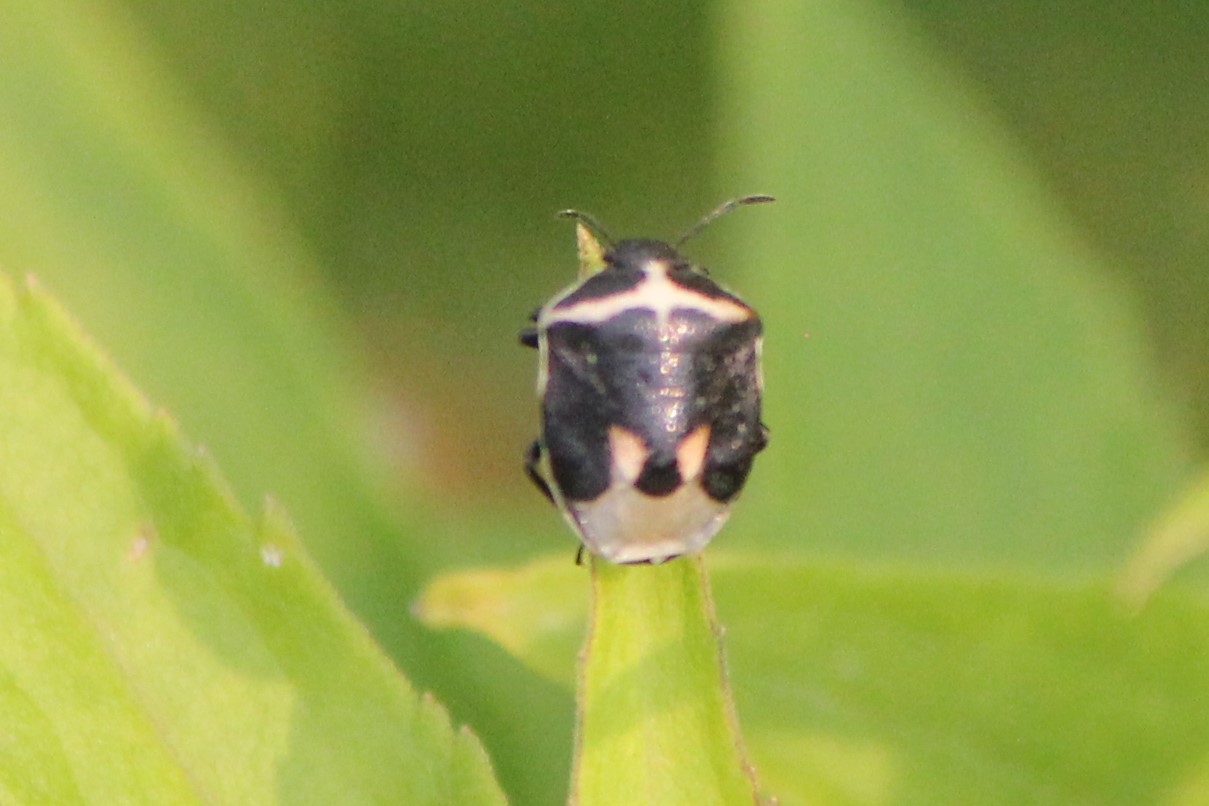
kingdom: Animalia
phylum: Arthropoda
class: Insecta
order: Hemiptera
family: Pentatomidae
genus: Cosmopepla
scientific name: Cosmopepla lintneriana
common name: Twice-stabbed stink bug
